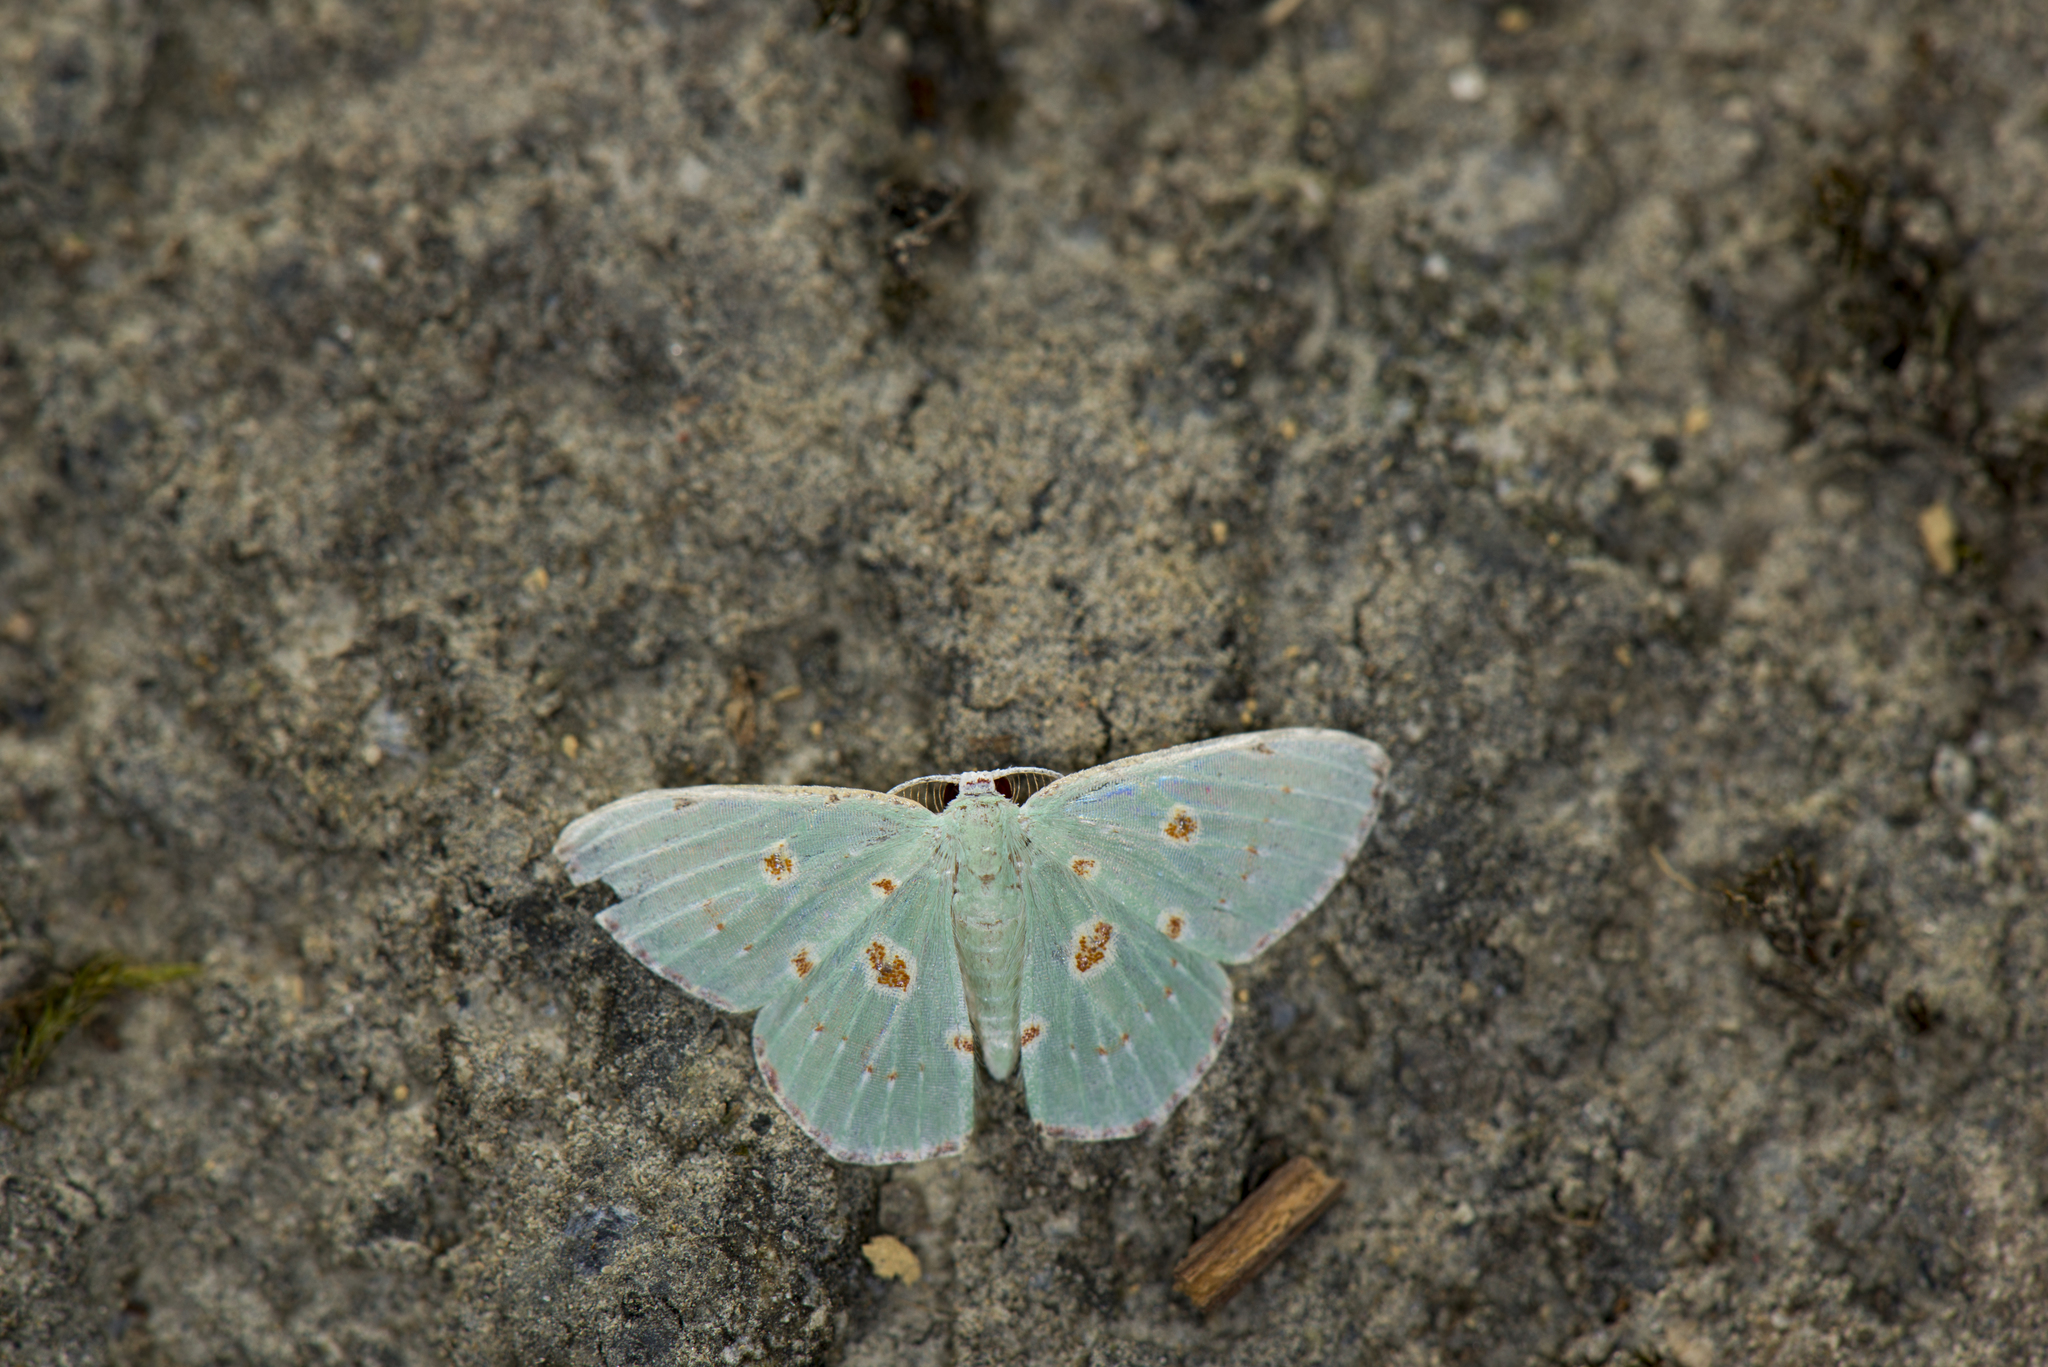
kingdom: Animalia
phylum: Arthropoda
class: Insecta
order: Lepidoptera
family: Geometridae
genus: Comostola
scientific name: Comostola laesaria
